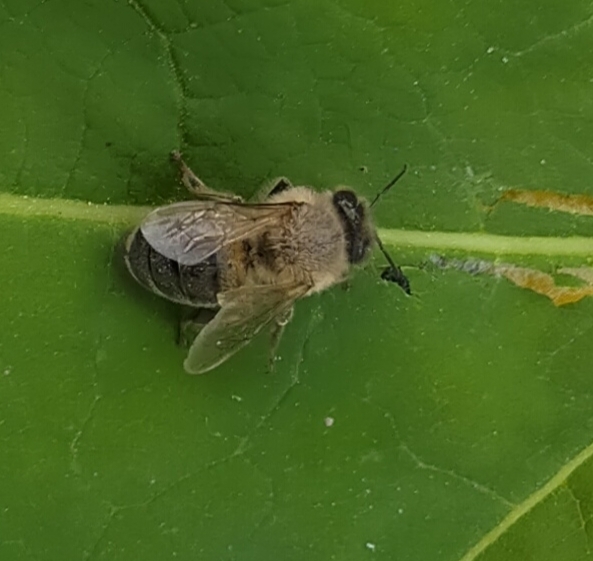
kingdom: Animalia
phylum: Arthropoda
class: Insecta
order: Hymenoptera
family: Apidae
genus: Apis
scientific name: Apis mellifera
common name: Honey bee
